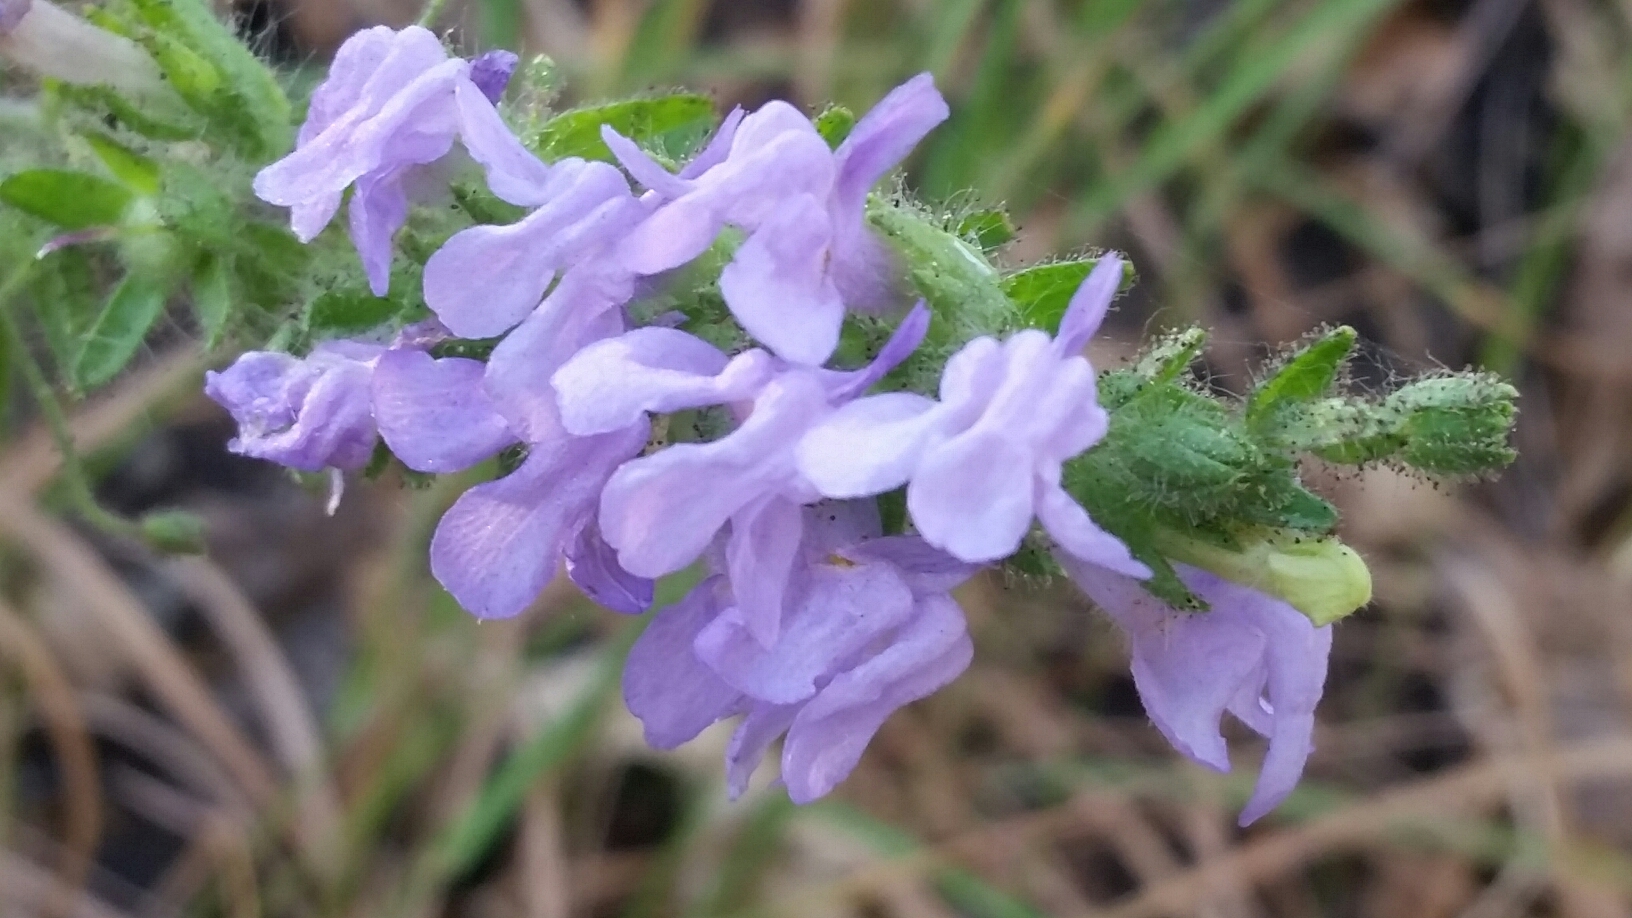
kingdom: Plantae
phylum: Tracheophyta
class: Magnoliopsida
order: Lamiales
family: Plantaginaceae
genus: Sairocarpus
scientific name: Sairocarpus vexillocalyculatus
